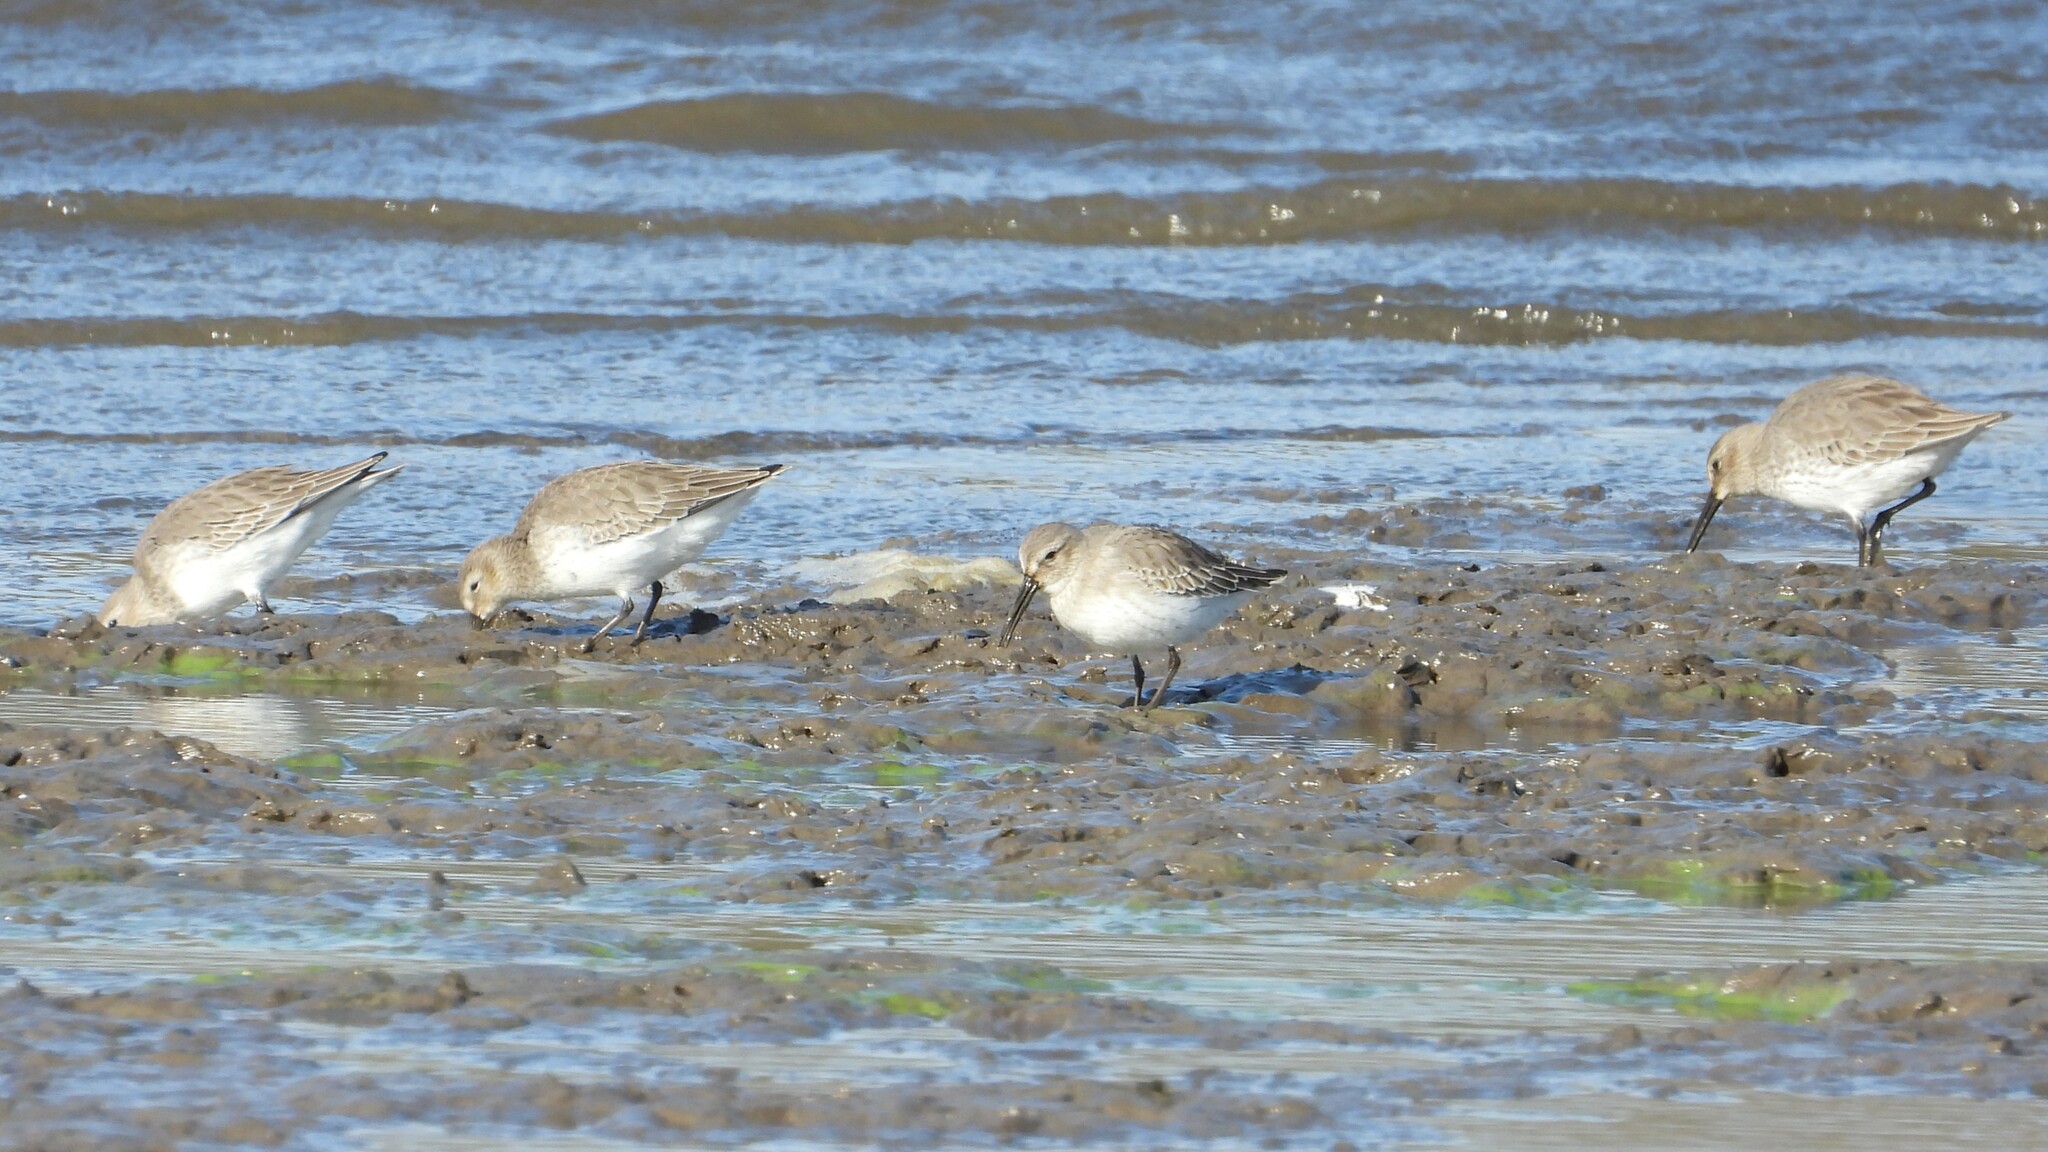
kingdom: Animalia
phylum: Chordata
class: Aves
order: Charadriiformes
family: Scolopacidae
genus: Calidris
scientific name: Calidris alpina
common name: Dunlin
